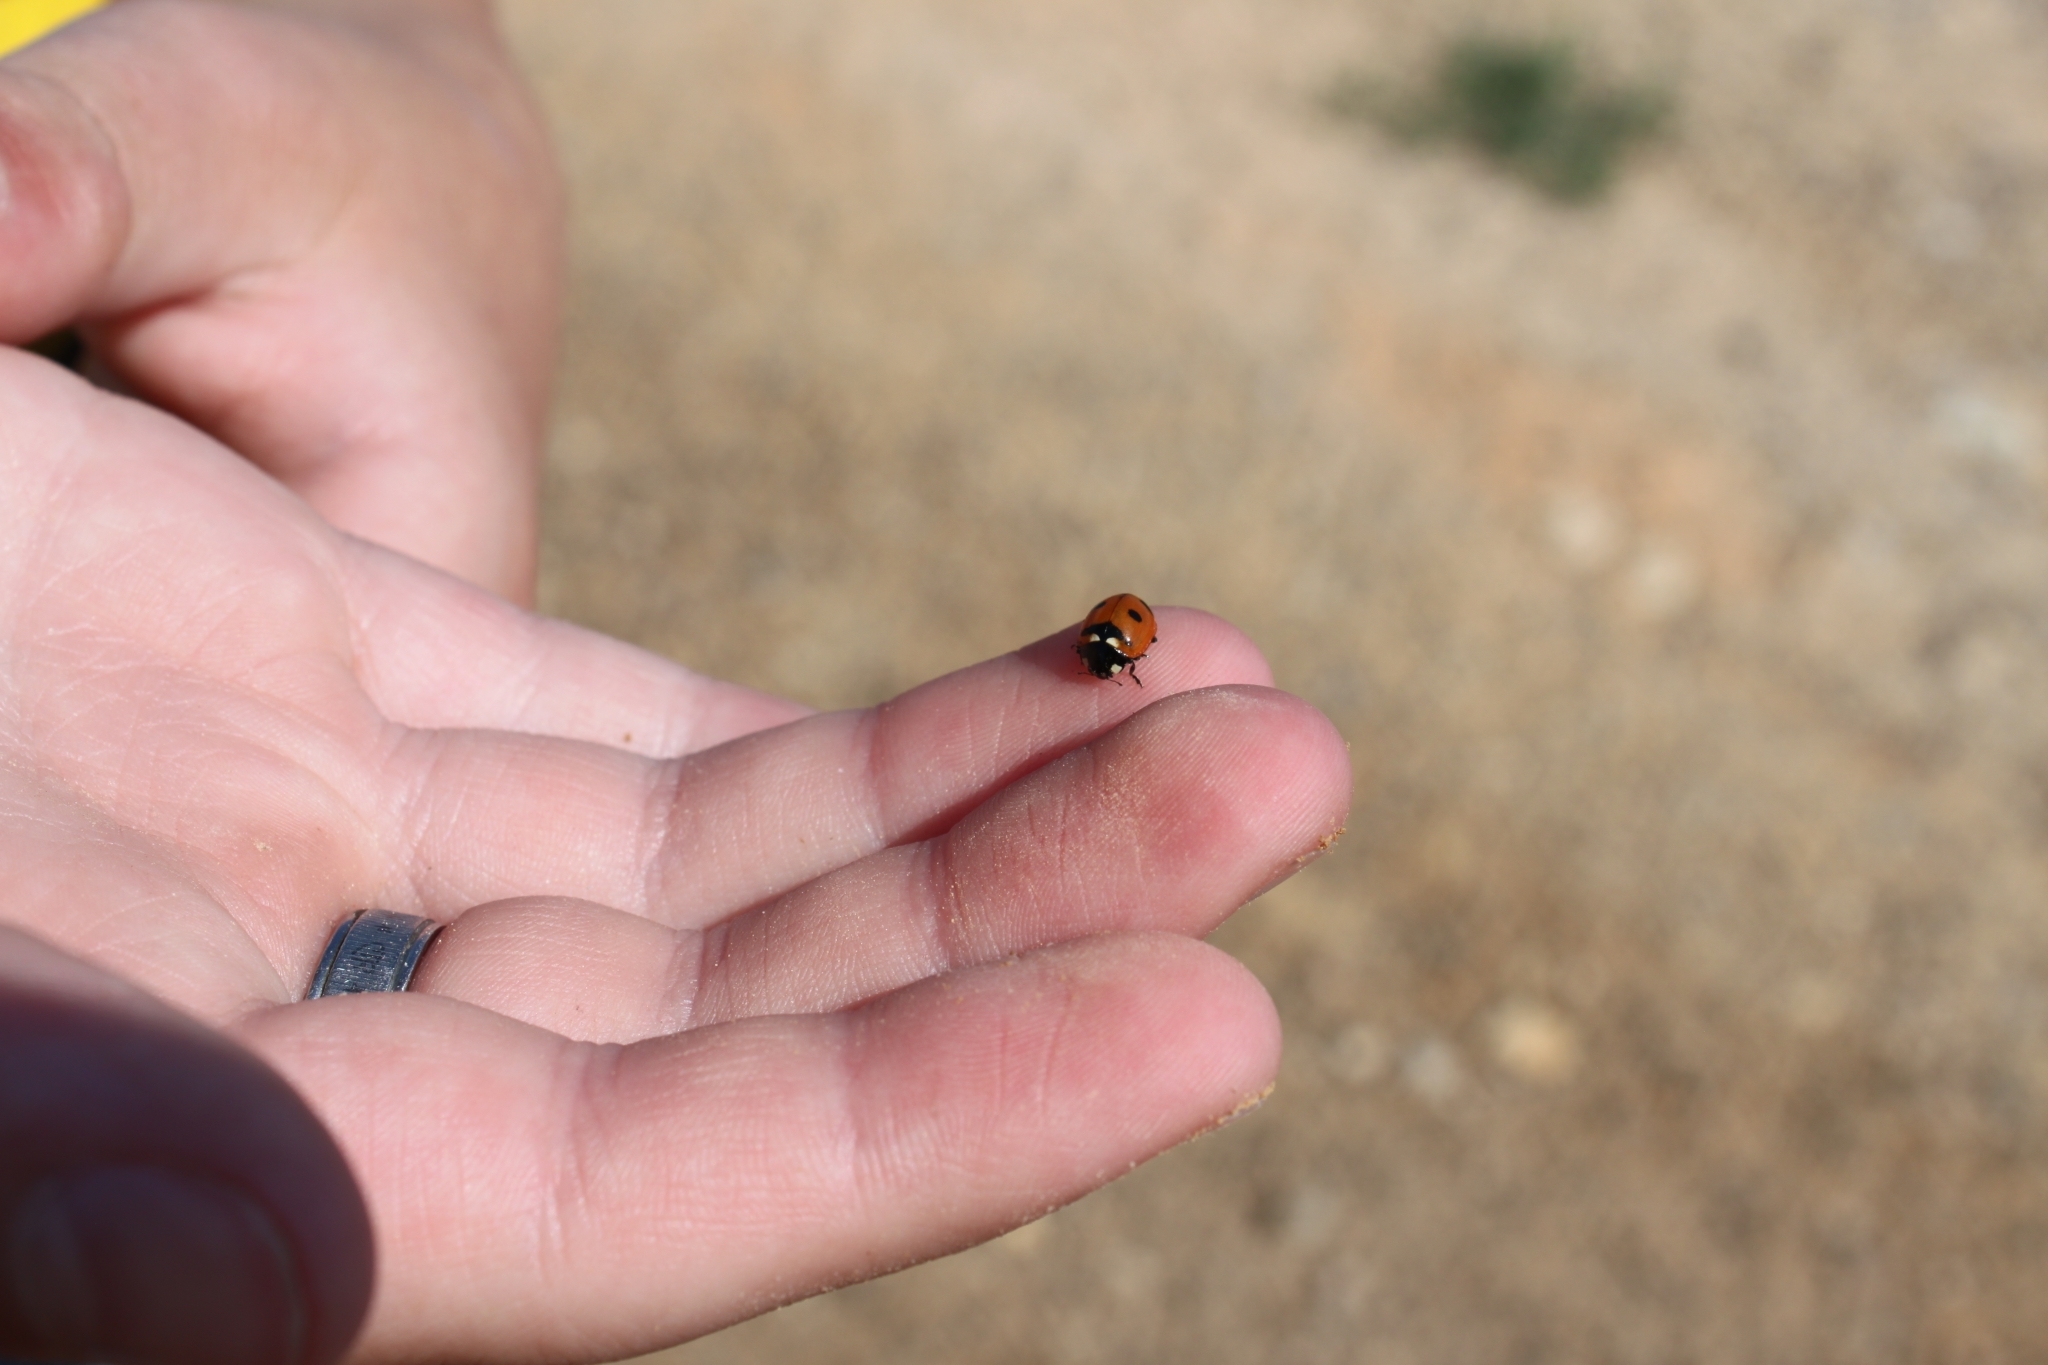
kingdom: Animalia
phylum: Arthropoda
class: Insecta
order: Coleoptera
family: Coccinellidae
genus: Coccinella
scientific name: Coccinella transversoguttata
